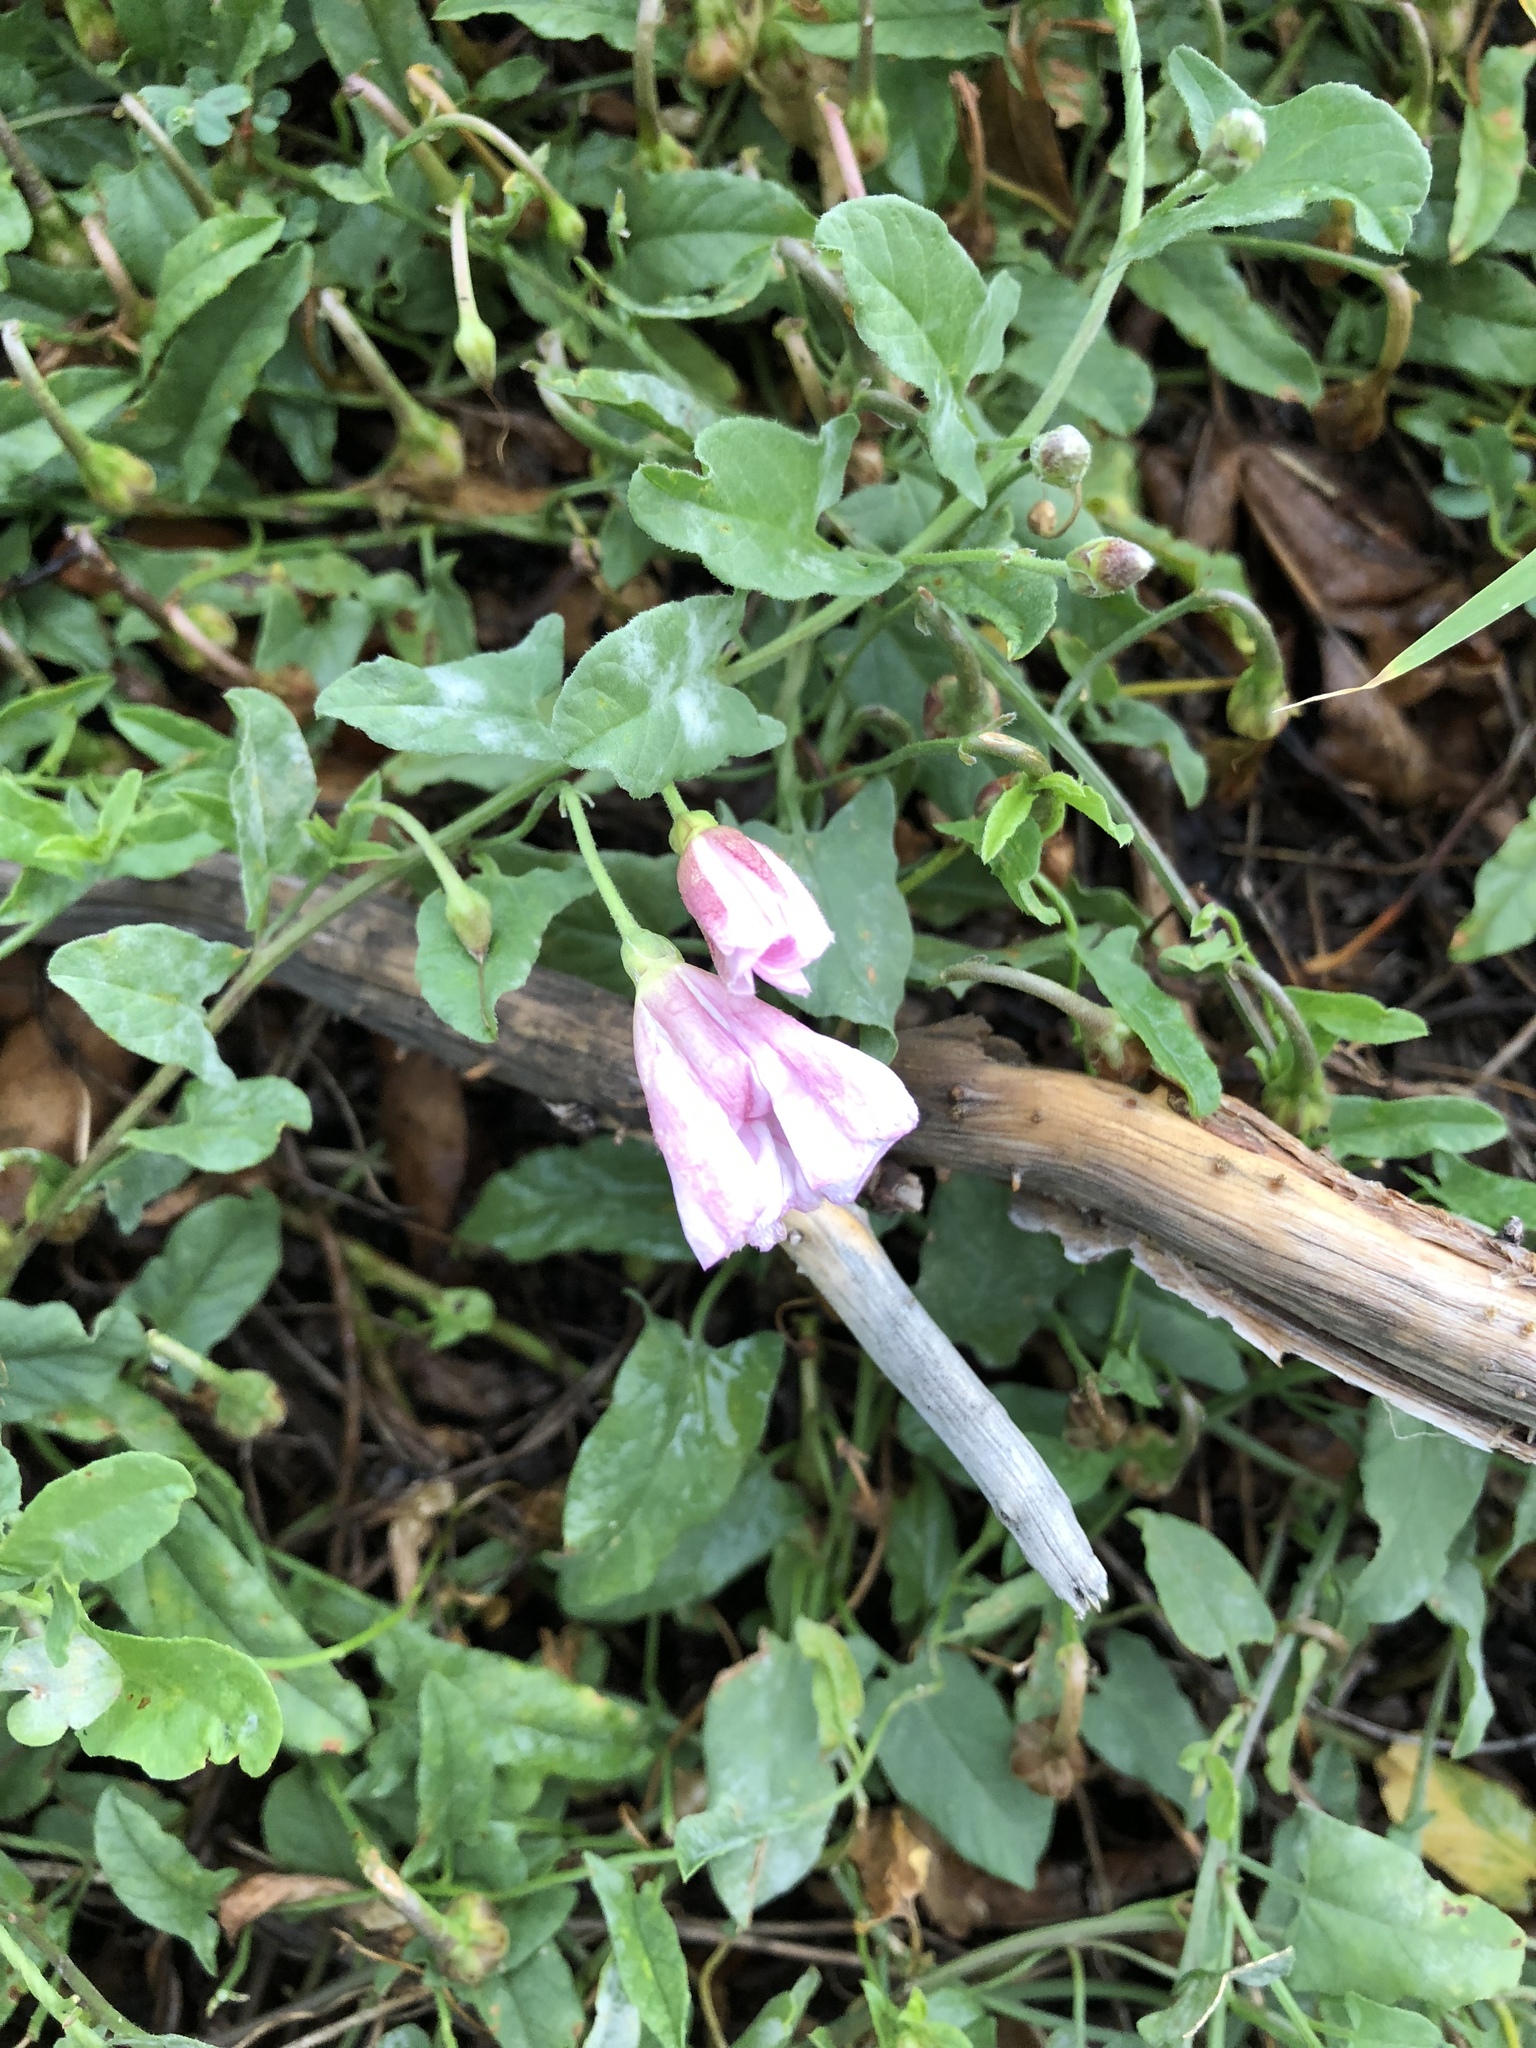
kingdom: Plantae
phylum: Tracheophyta
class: Magnoliopsida
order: Solanales
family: Convolvulaceae
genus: Convolvulus
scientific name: Convolvulus arvensis
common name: Field bindweed
